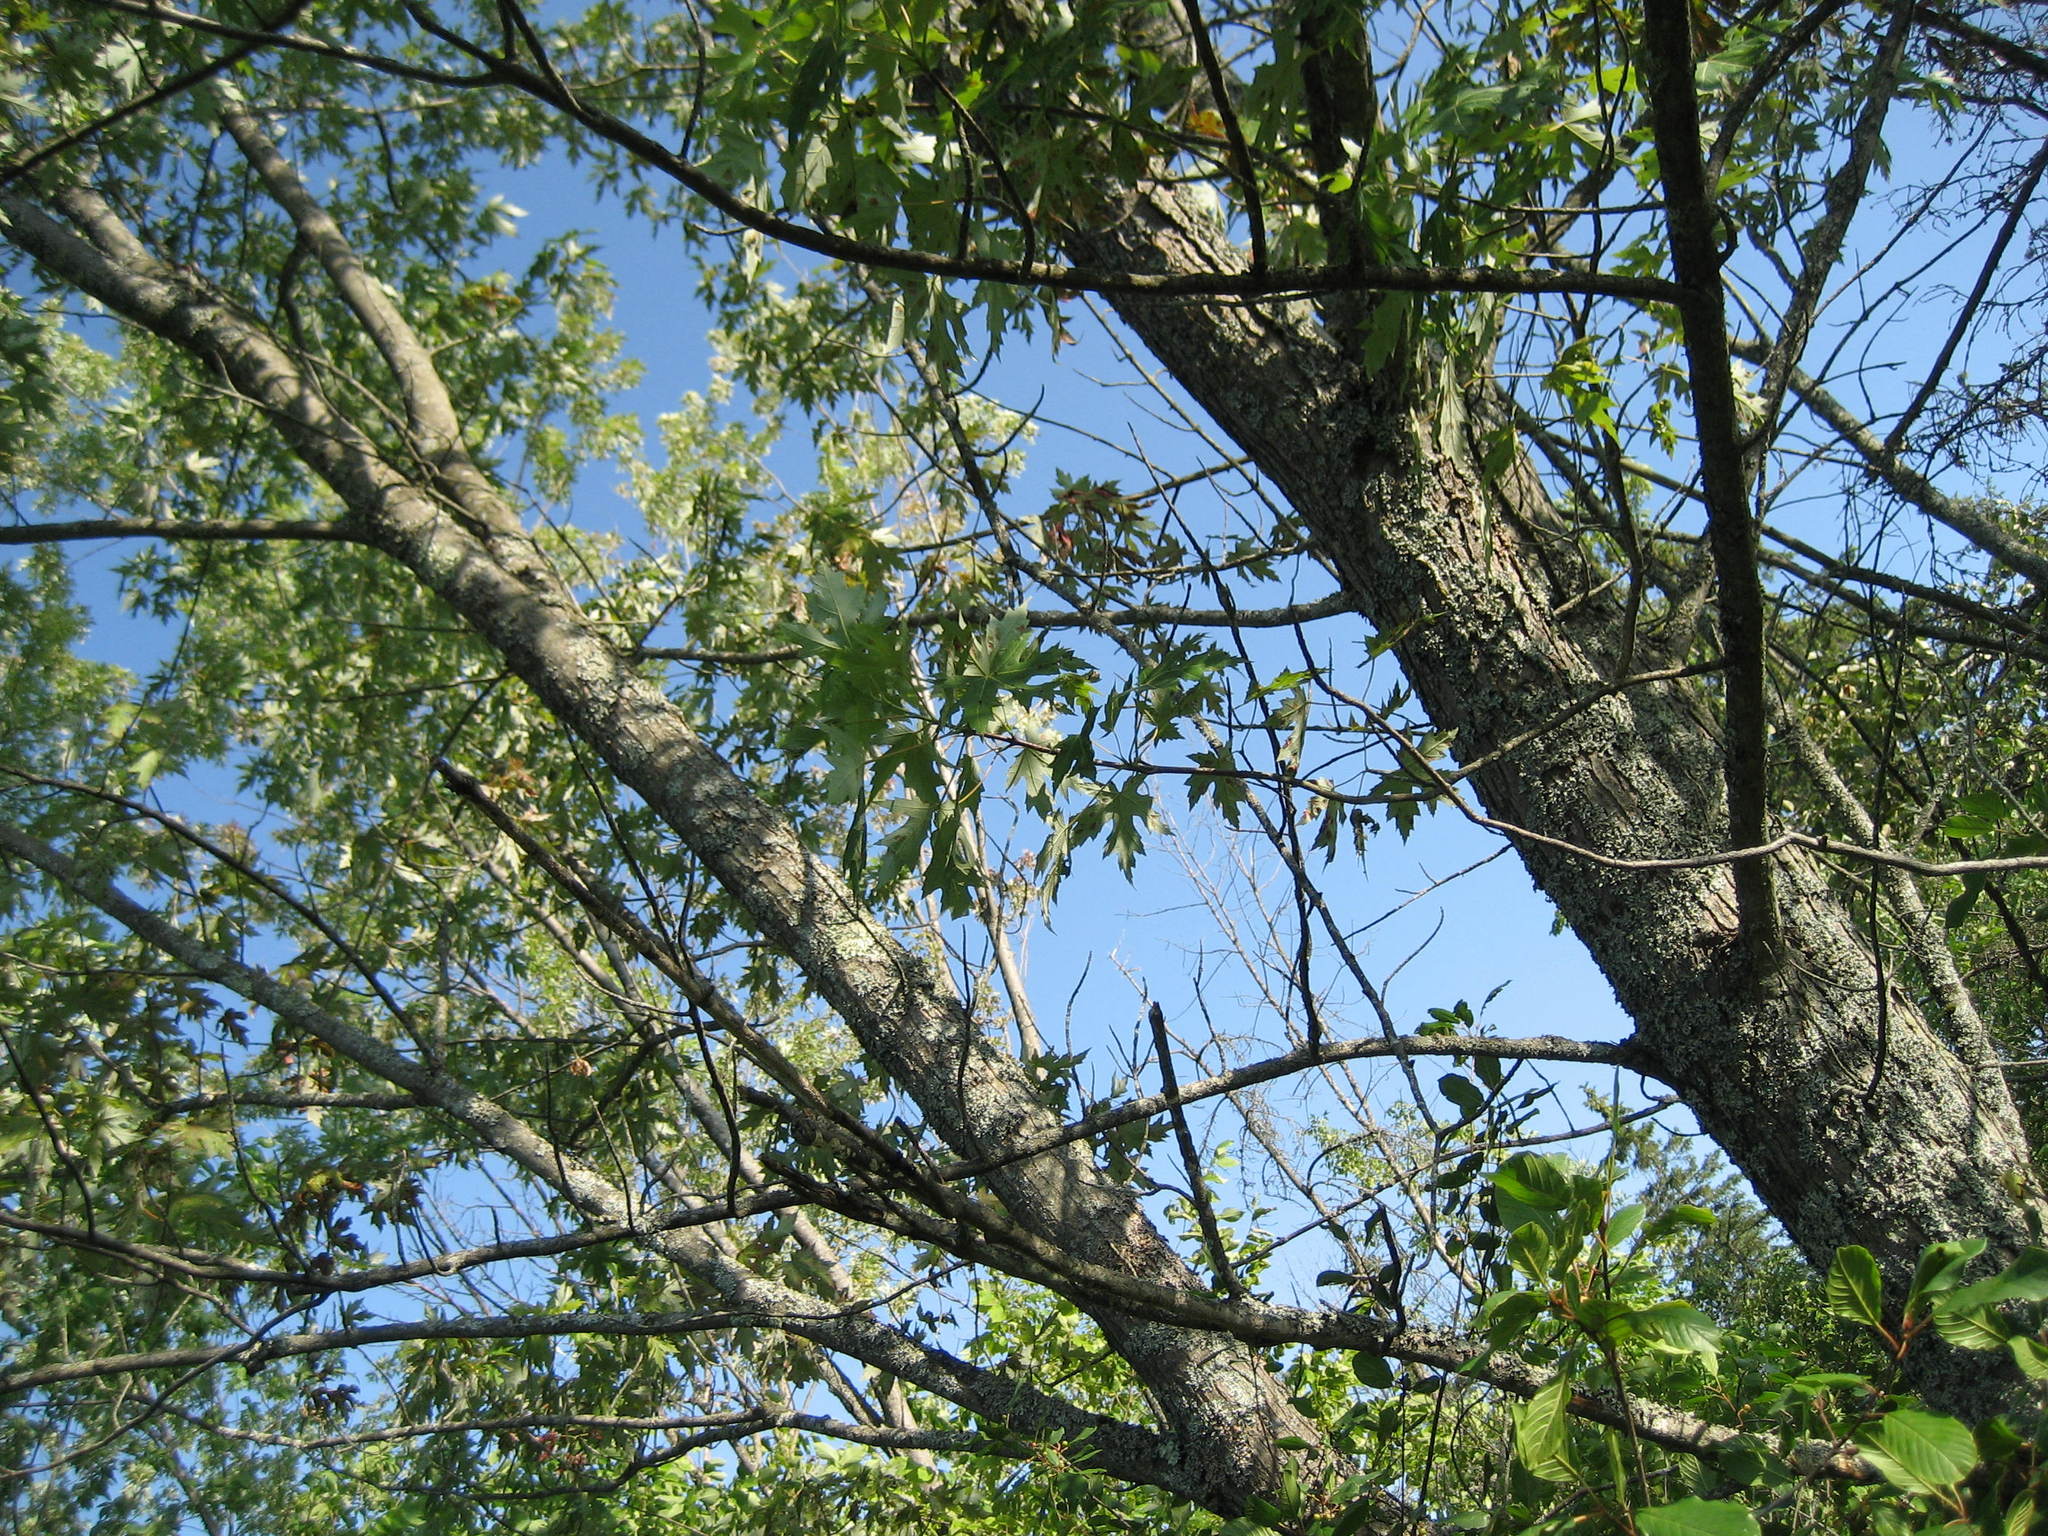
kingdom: Plantae
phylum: Tracheophyta
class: Magnoliopsida
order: Sapindales
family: Sapindaceae
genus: Acer
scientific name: Acer saccharinum
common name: Silver maple
